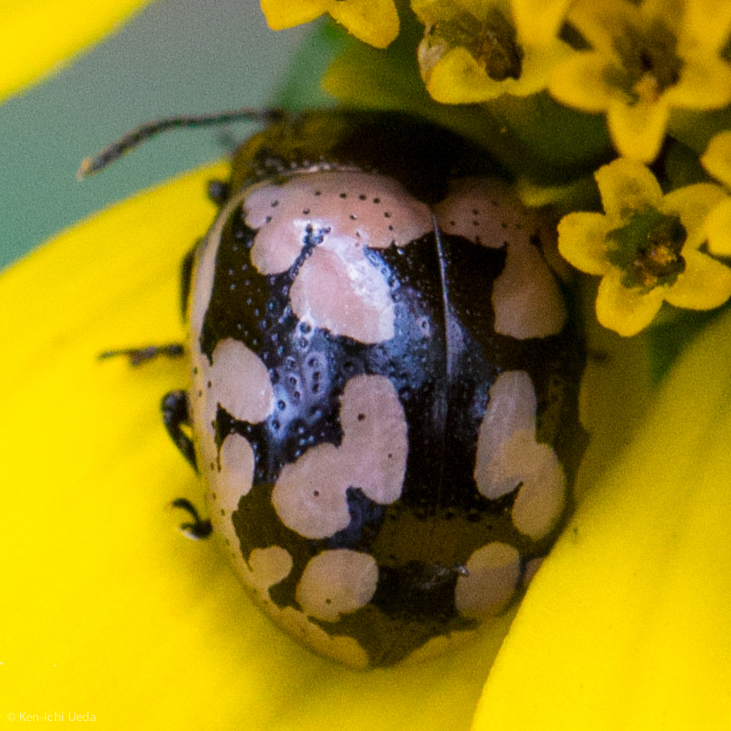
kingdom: Animalia
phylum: Arthropoda
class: Insecta
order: Coleoptera
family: Chrysomelidae
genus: Calligrapha
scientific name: Calligrapha multiguttata
